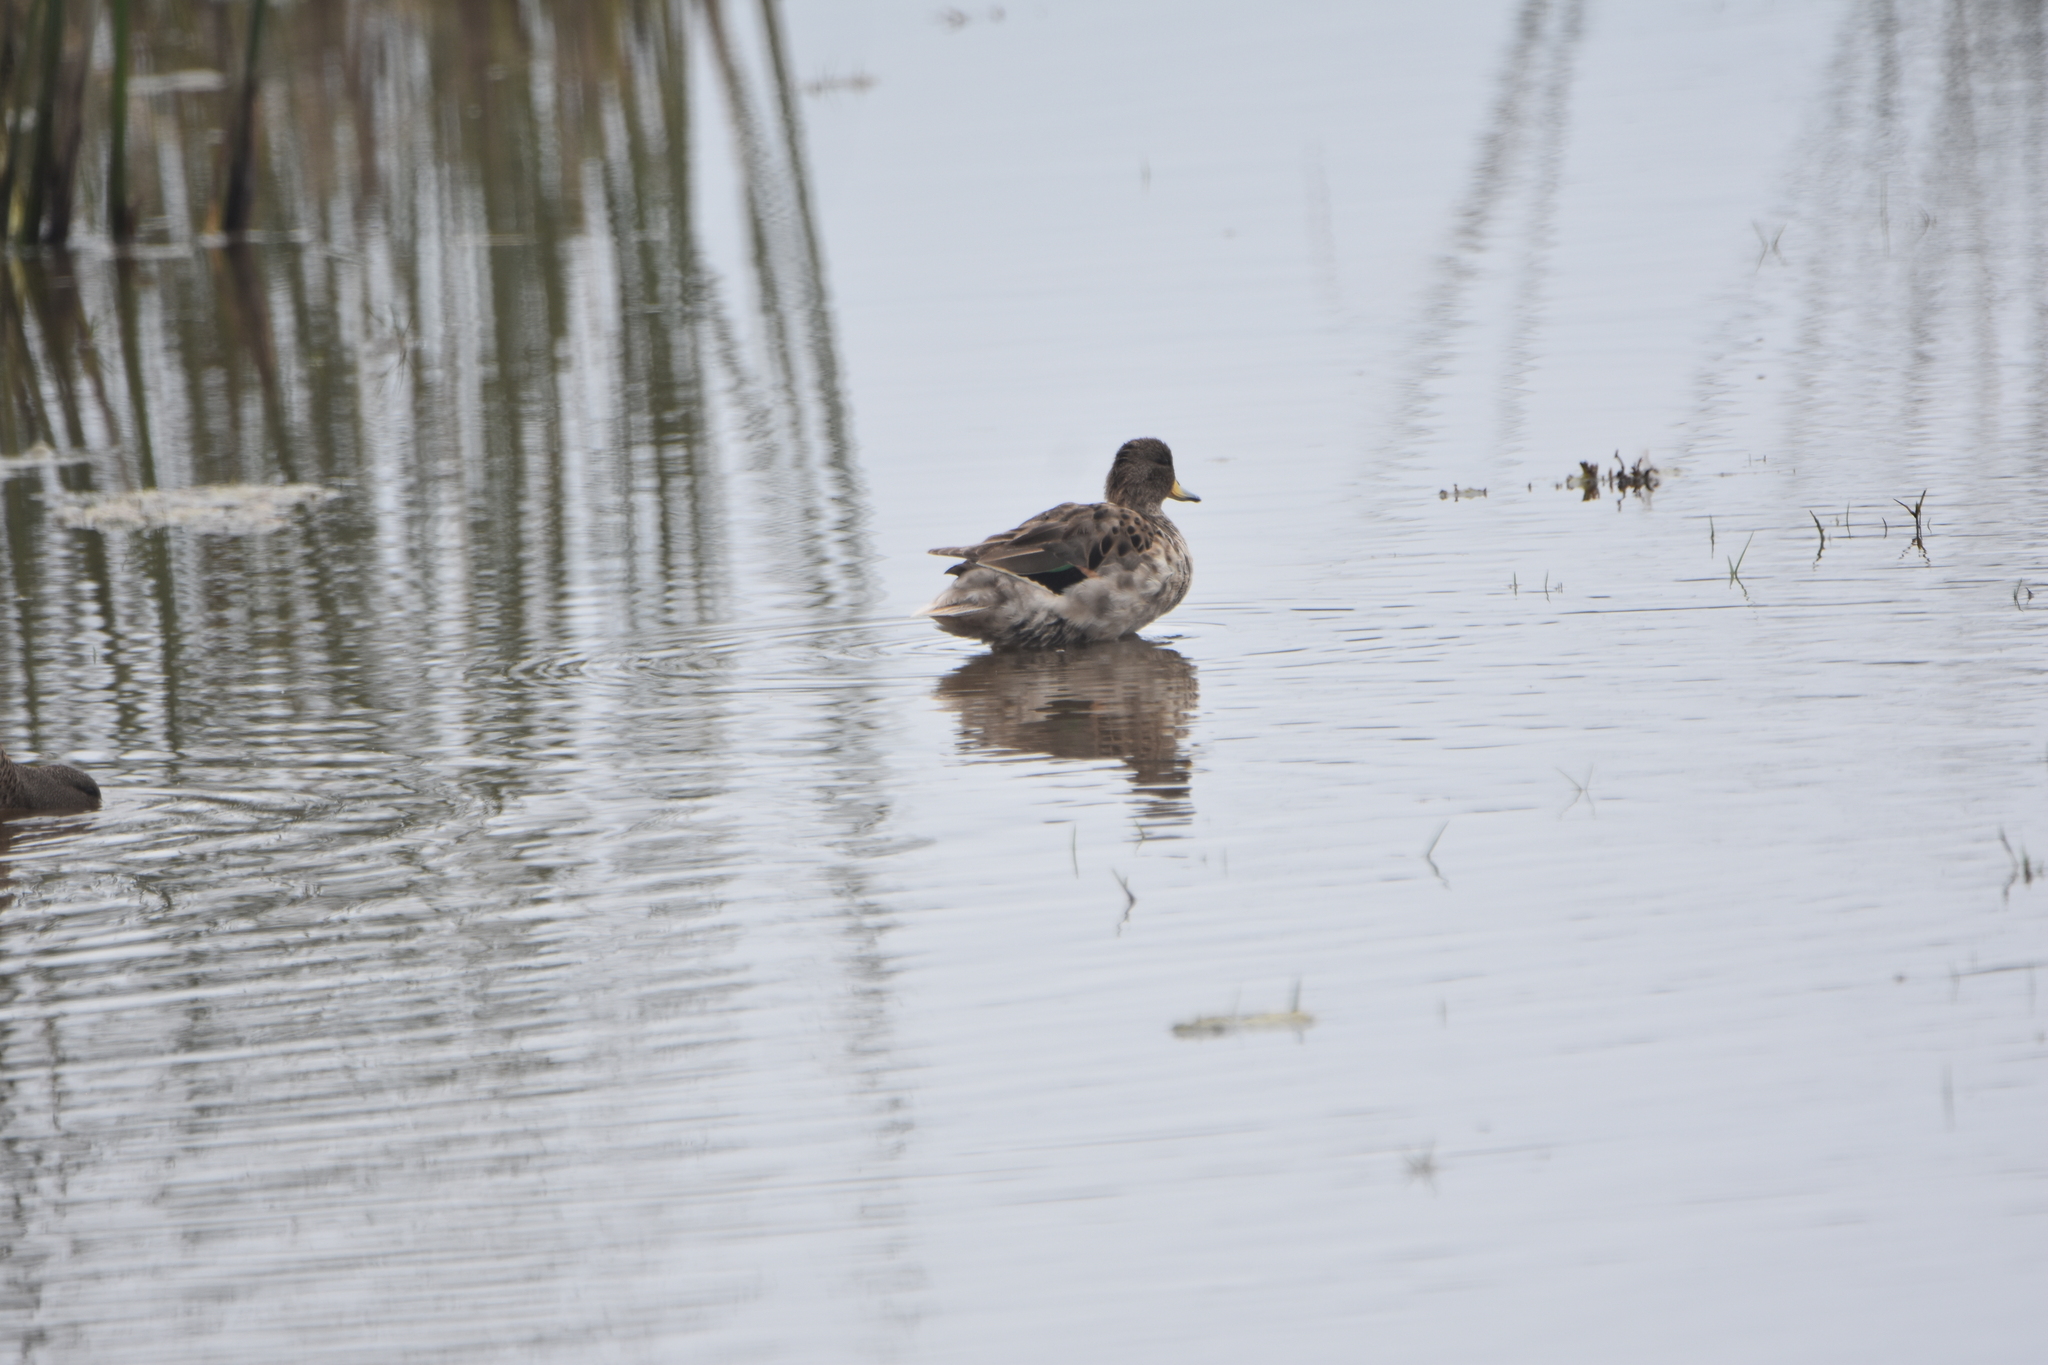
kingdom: Animalia
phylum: Chordata
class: Aves
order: Anseriformes
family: Anatidae
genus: Anas
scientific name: Anas flavirostris
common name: Yellow-billed teal
